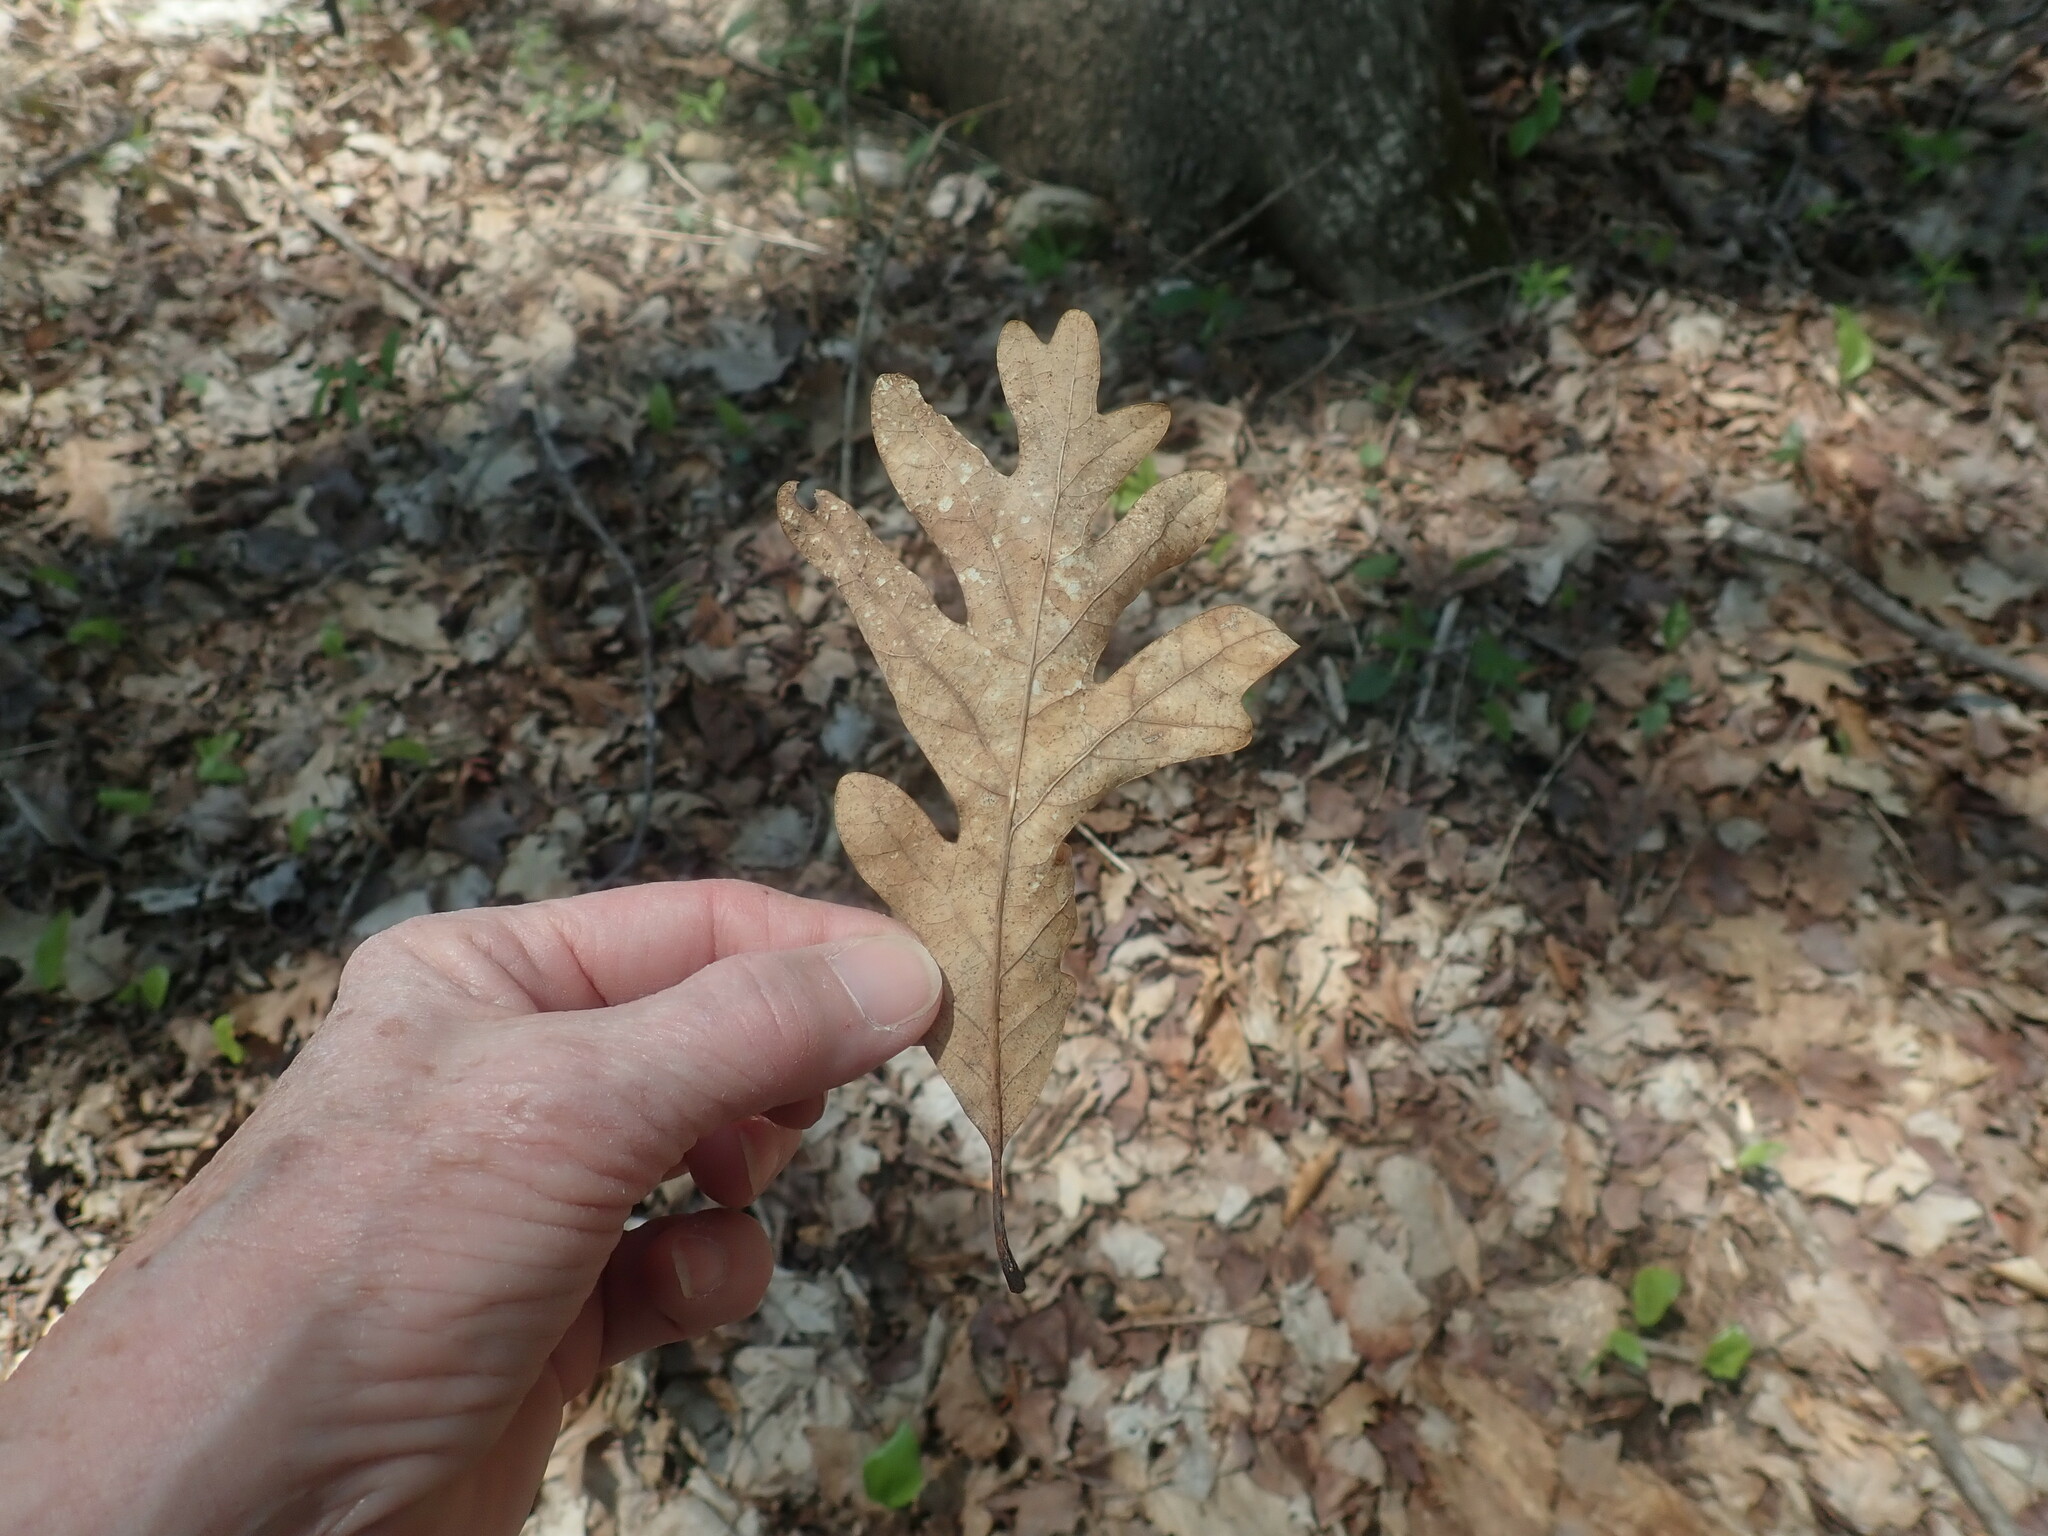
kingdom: Plantae
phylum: Tracheophyta
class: Magnoliopsida
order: Fagales
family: Fagaceae
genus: Quercus
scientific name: Quercus alba
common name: White oak
